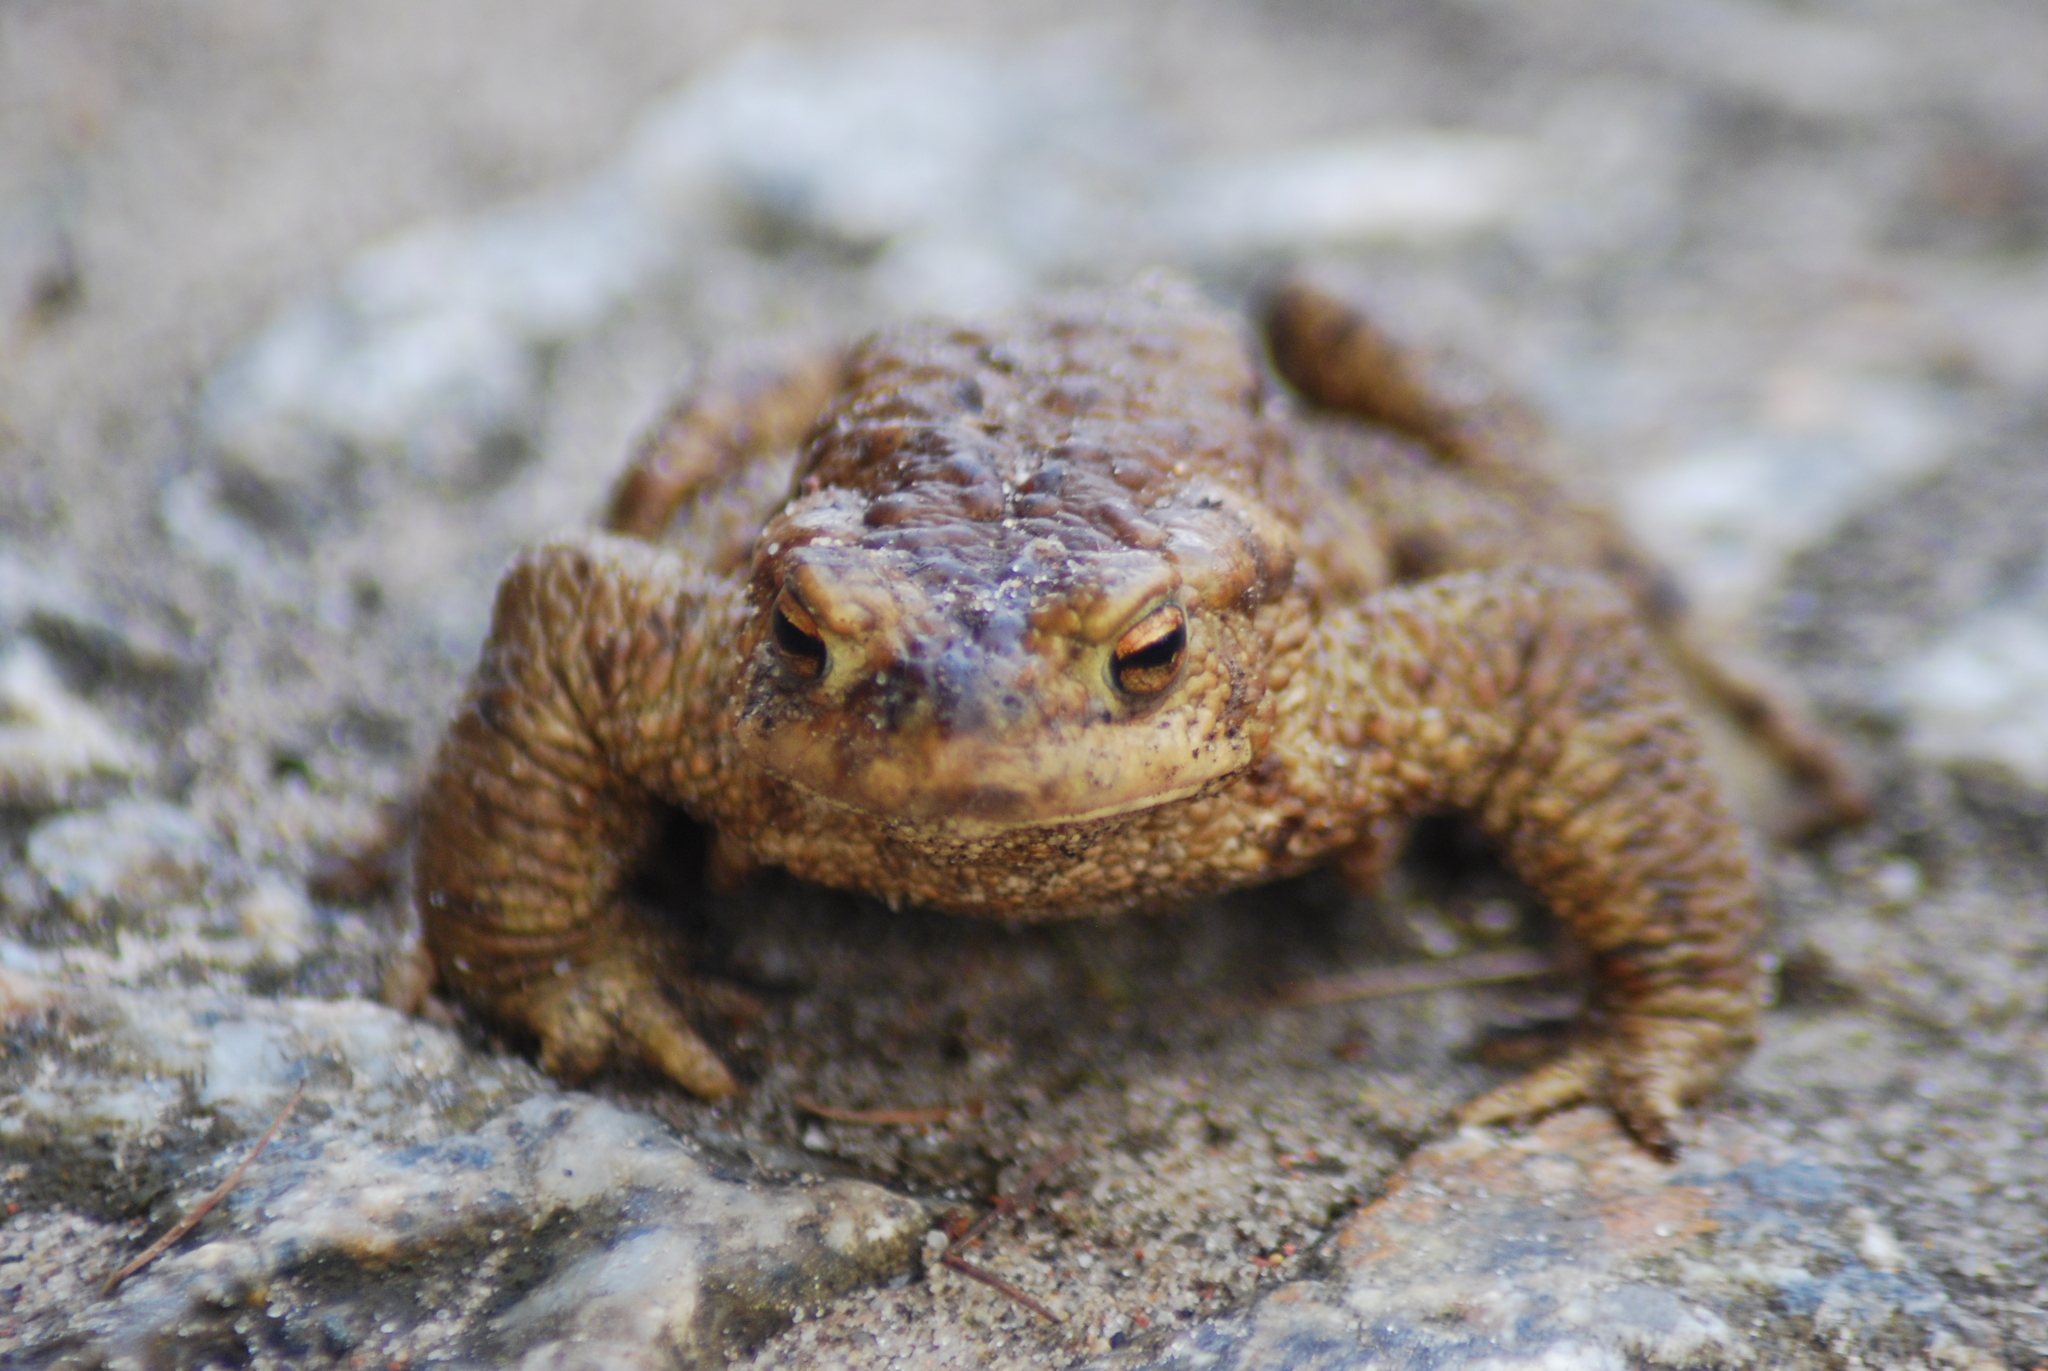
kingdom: Animalia
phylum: Chordata
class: Amphibia
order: Anura
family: Bufonidae
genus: Bufo
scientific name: Bufo bufo
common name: Common toad
